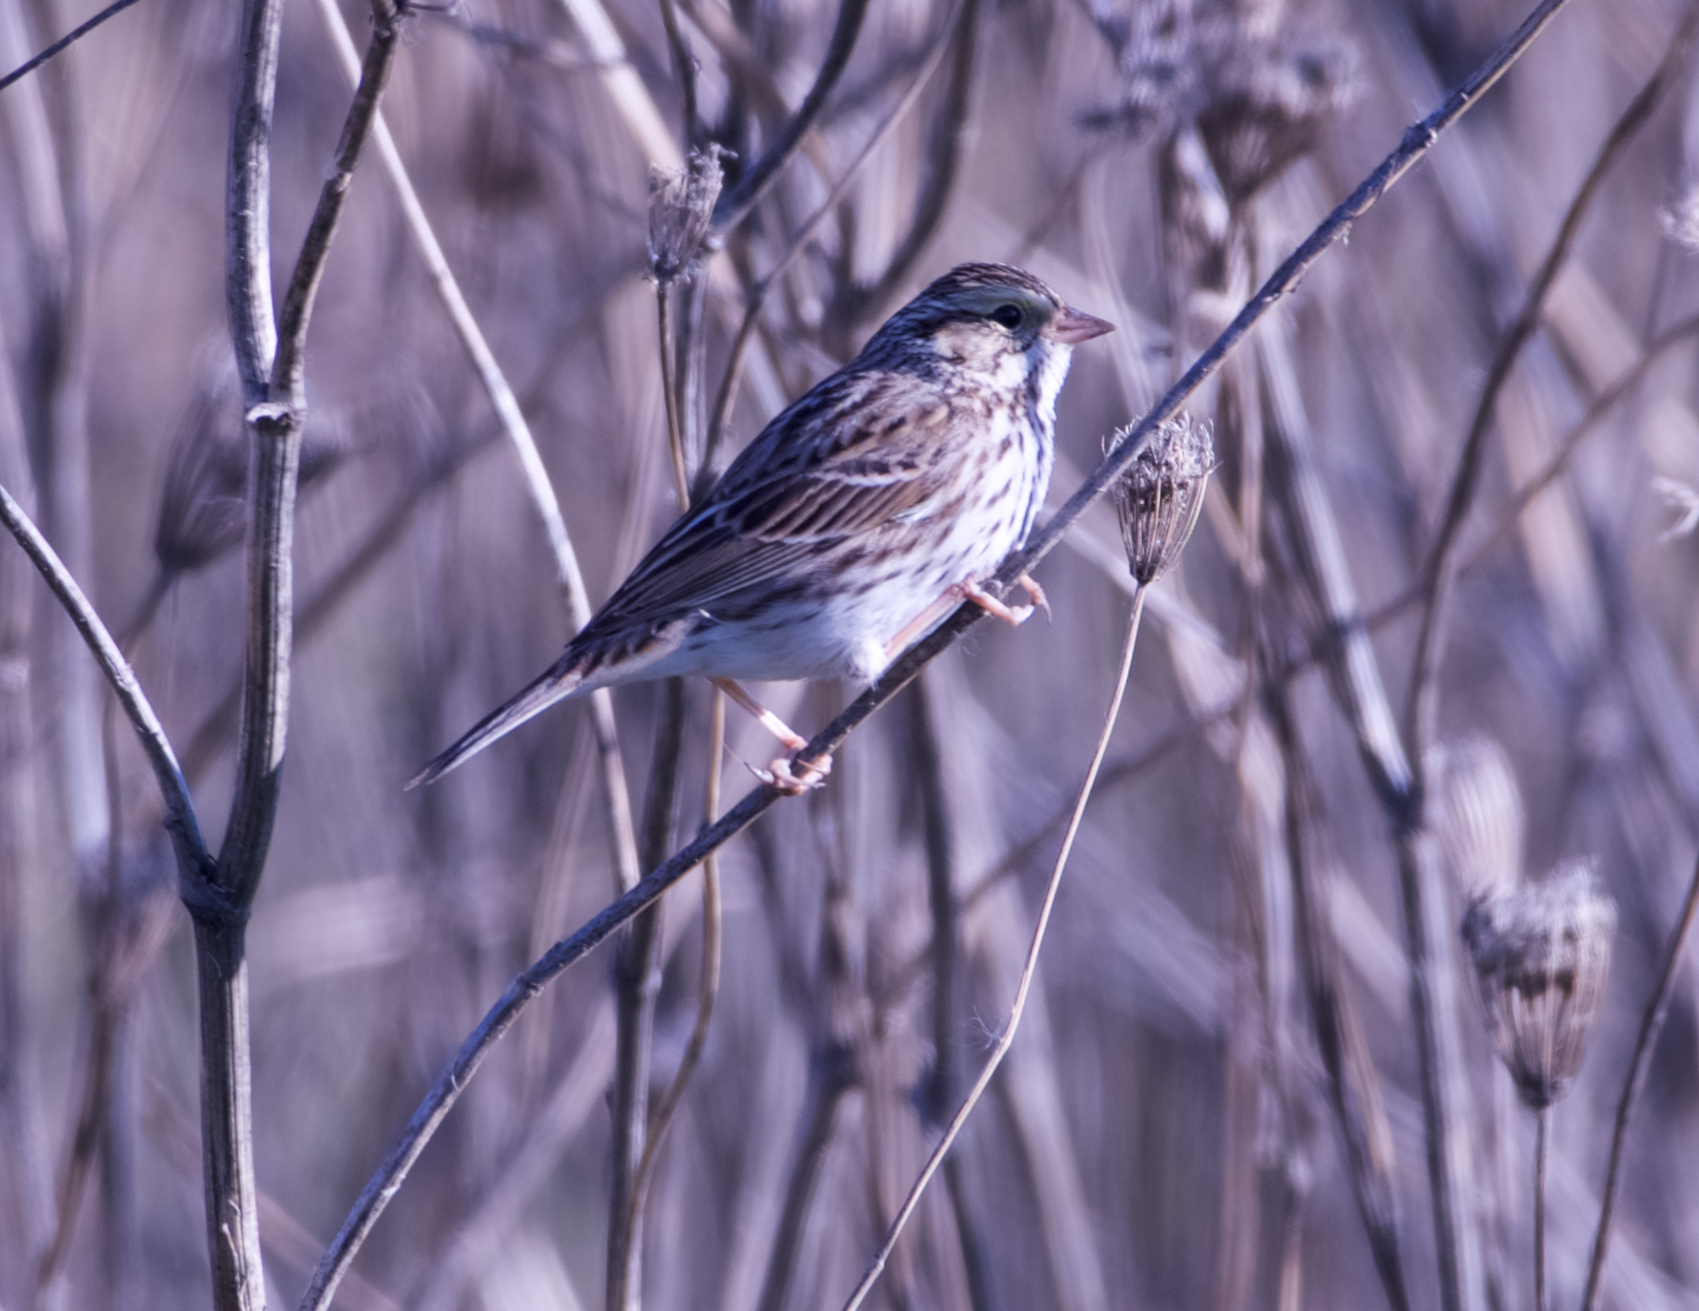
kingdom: Animalia
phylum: Chordata
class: Aves
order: Passeriformes
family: Passerellidae
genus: Passerculus
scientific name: Passerculus sandwichensis
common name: Savannah sparrow
